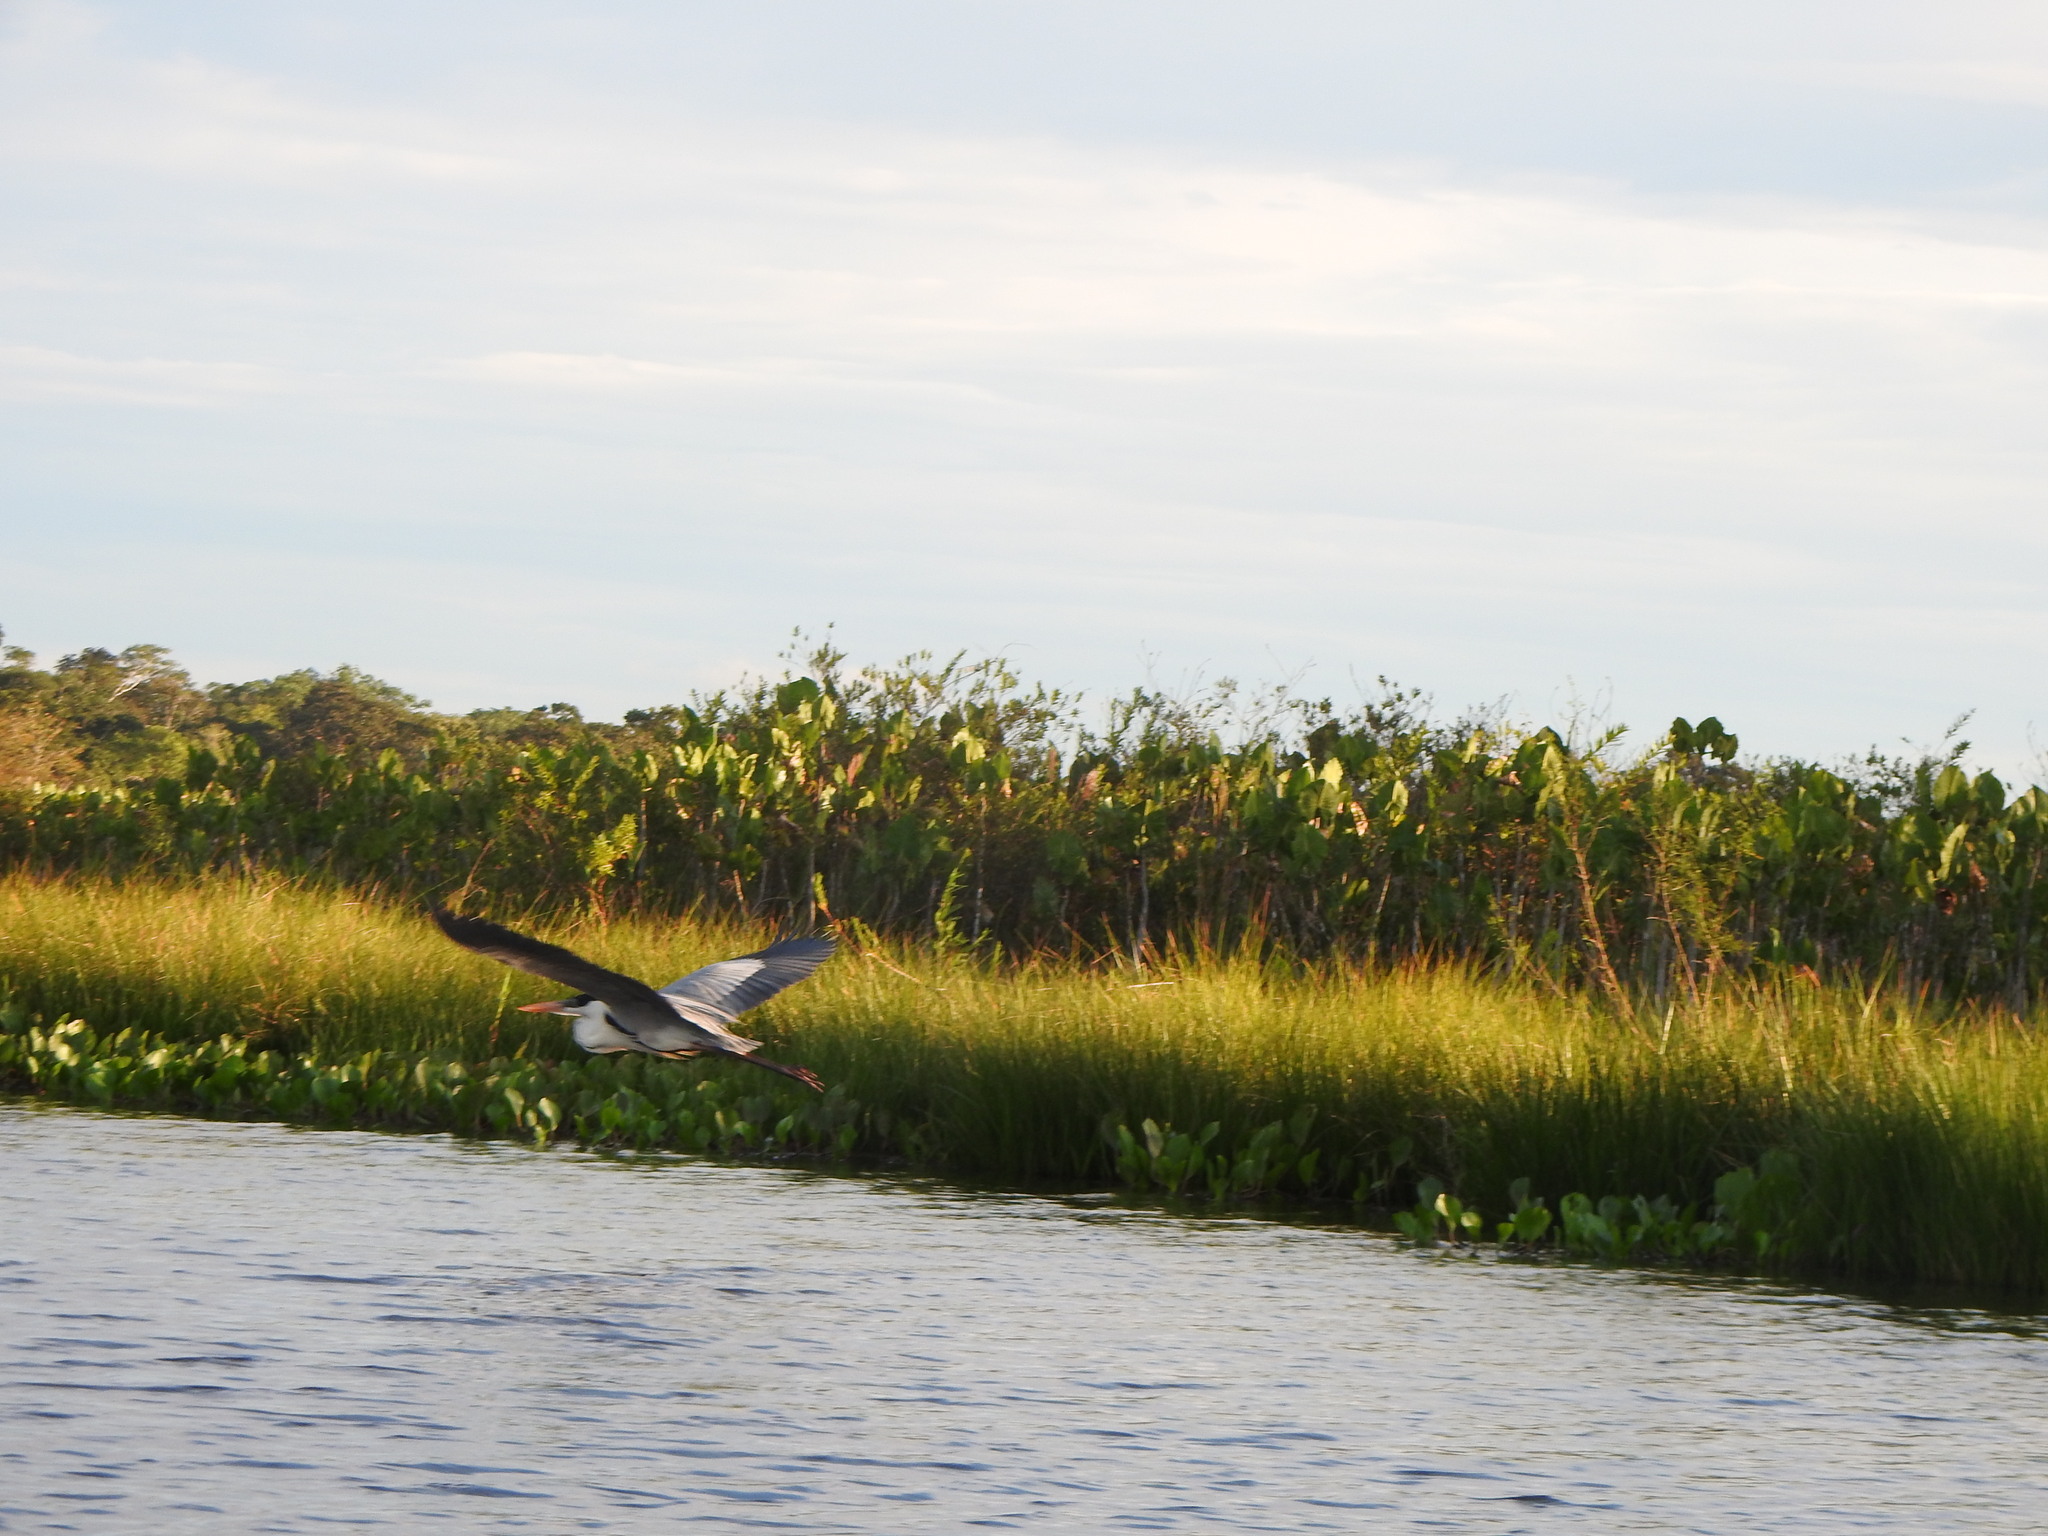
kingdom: Animalia
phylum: Chordata
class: Aves
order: Pelecaniformes
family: Ardeidae
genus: Ardea
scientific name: Ardea cocoi
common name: Cocoi heron
